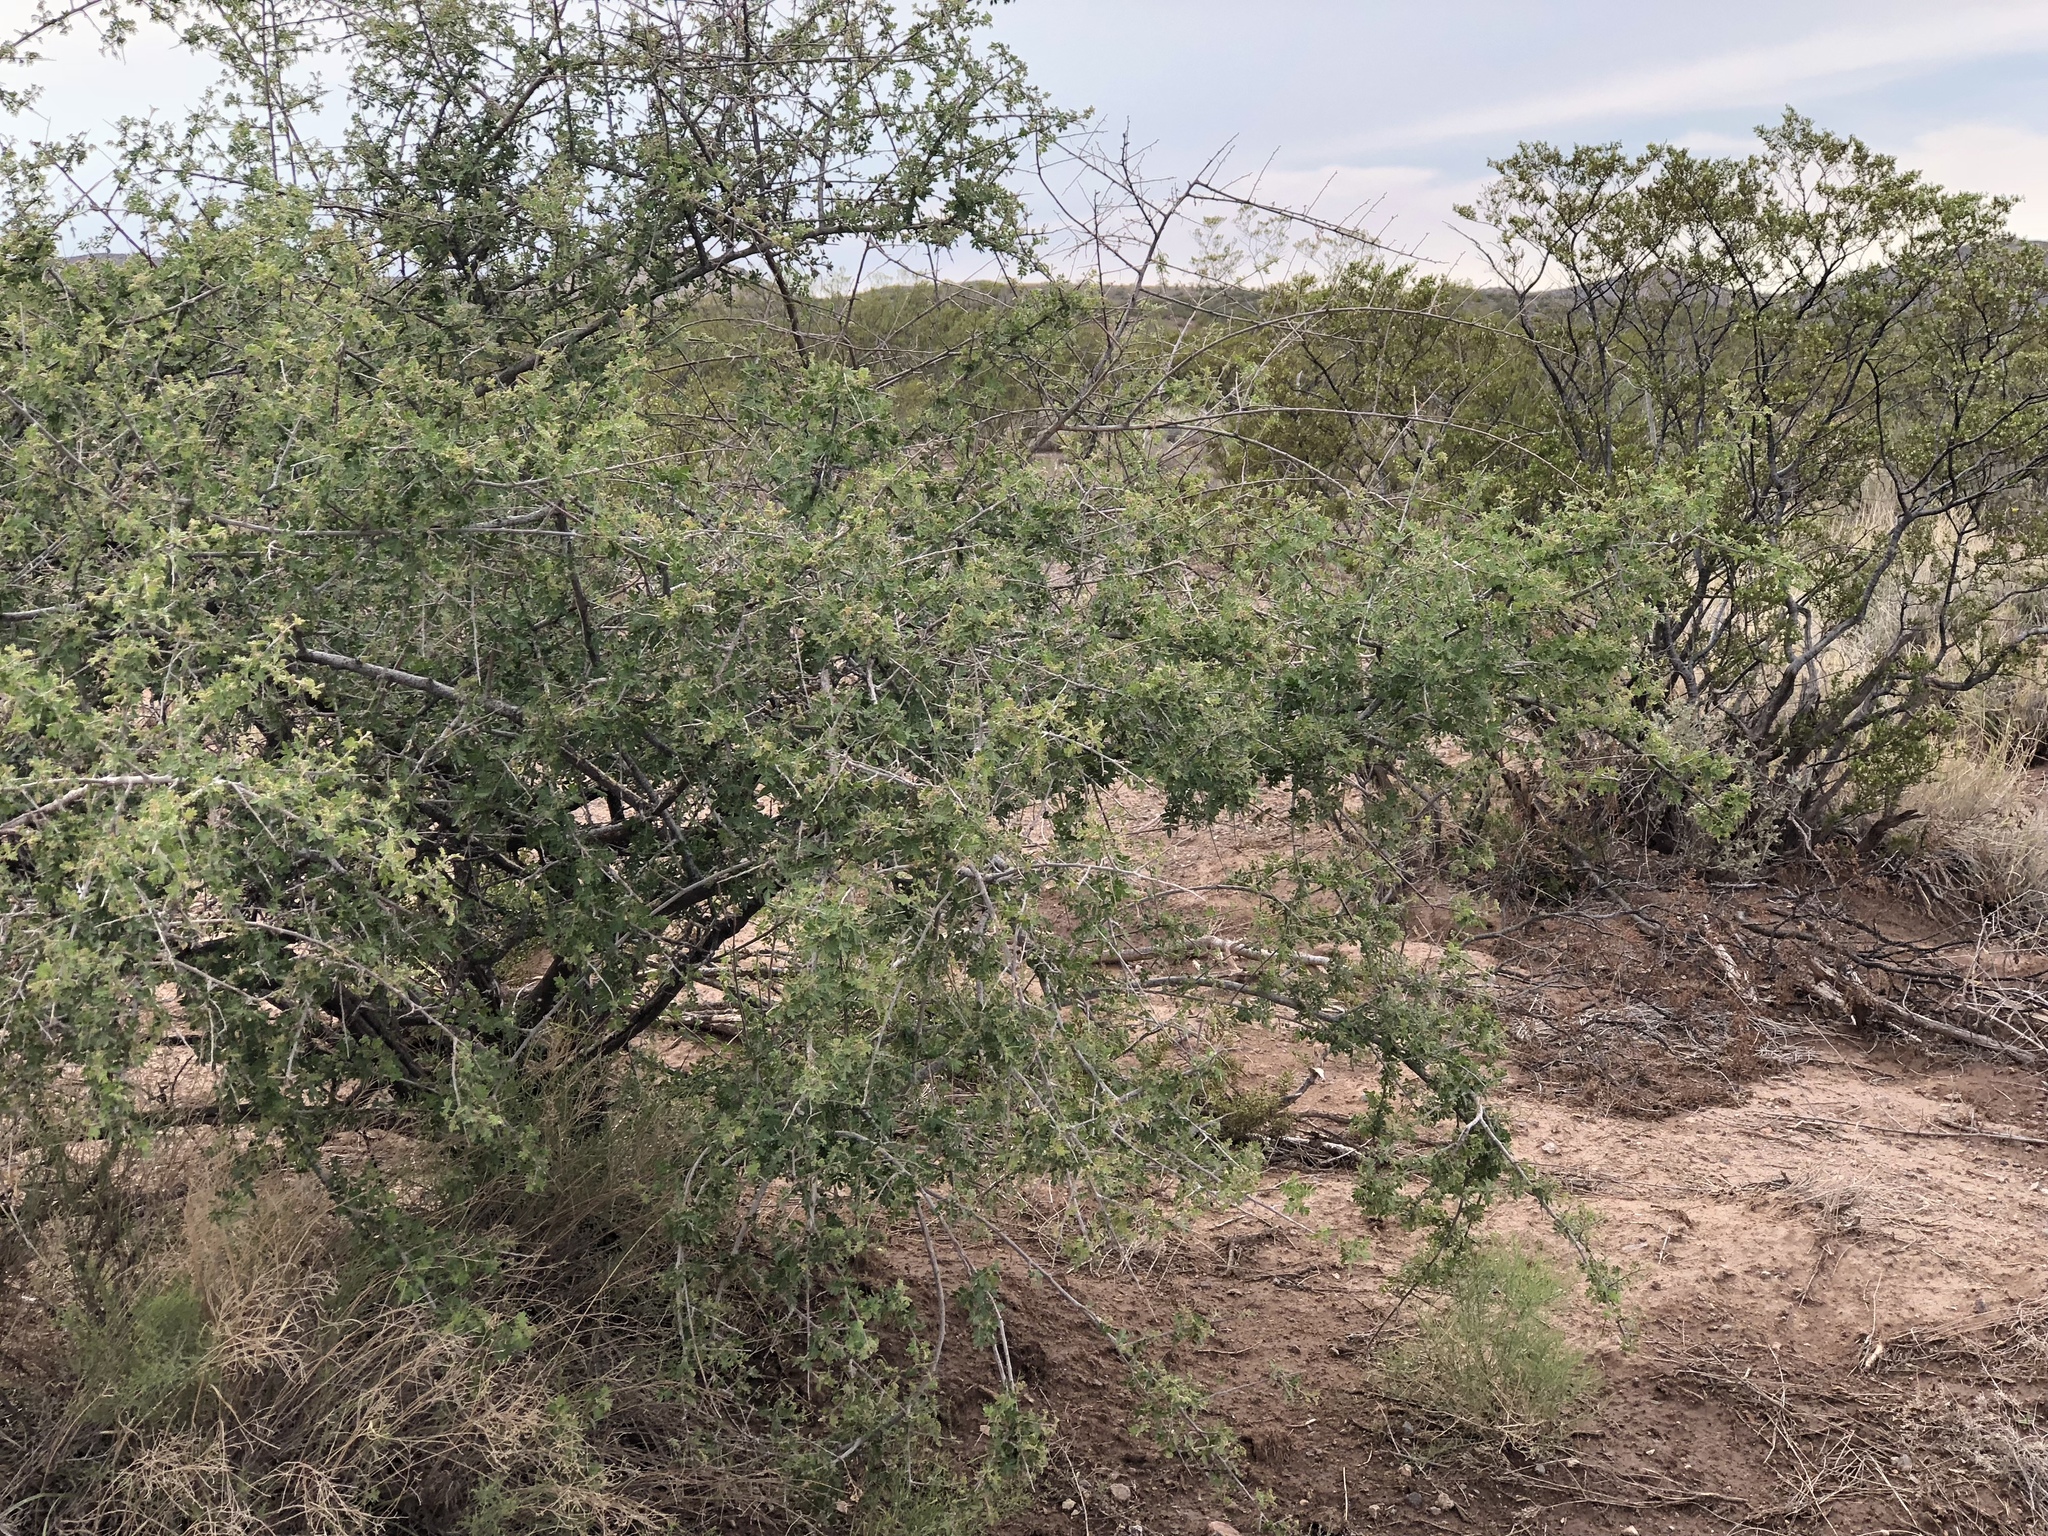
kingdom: Plantae
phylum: Tracheophyta
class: Magnoliopsida
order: Sapindales
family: Anacardiaceae
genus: Rhus
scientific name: Rhus microphylla
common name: Desert sumac
